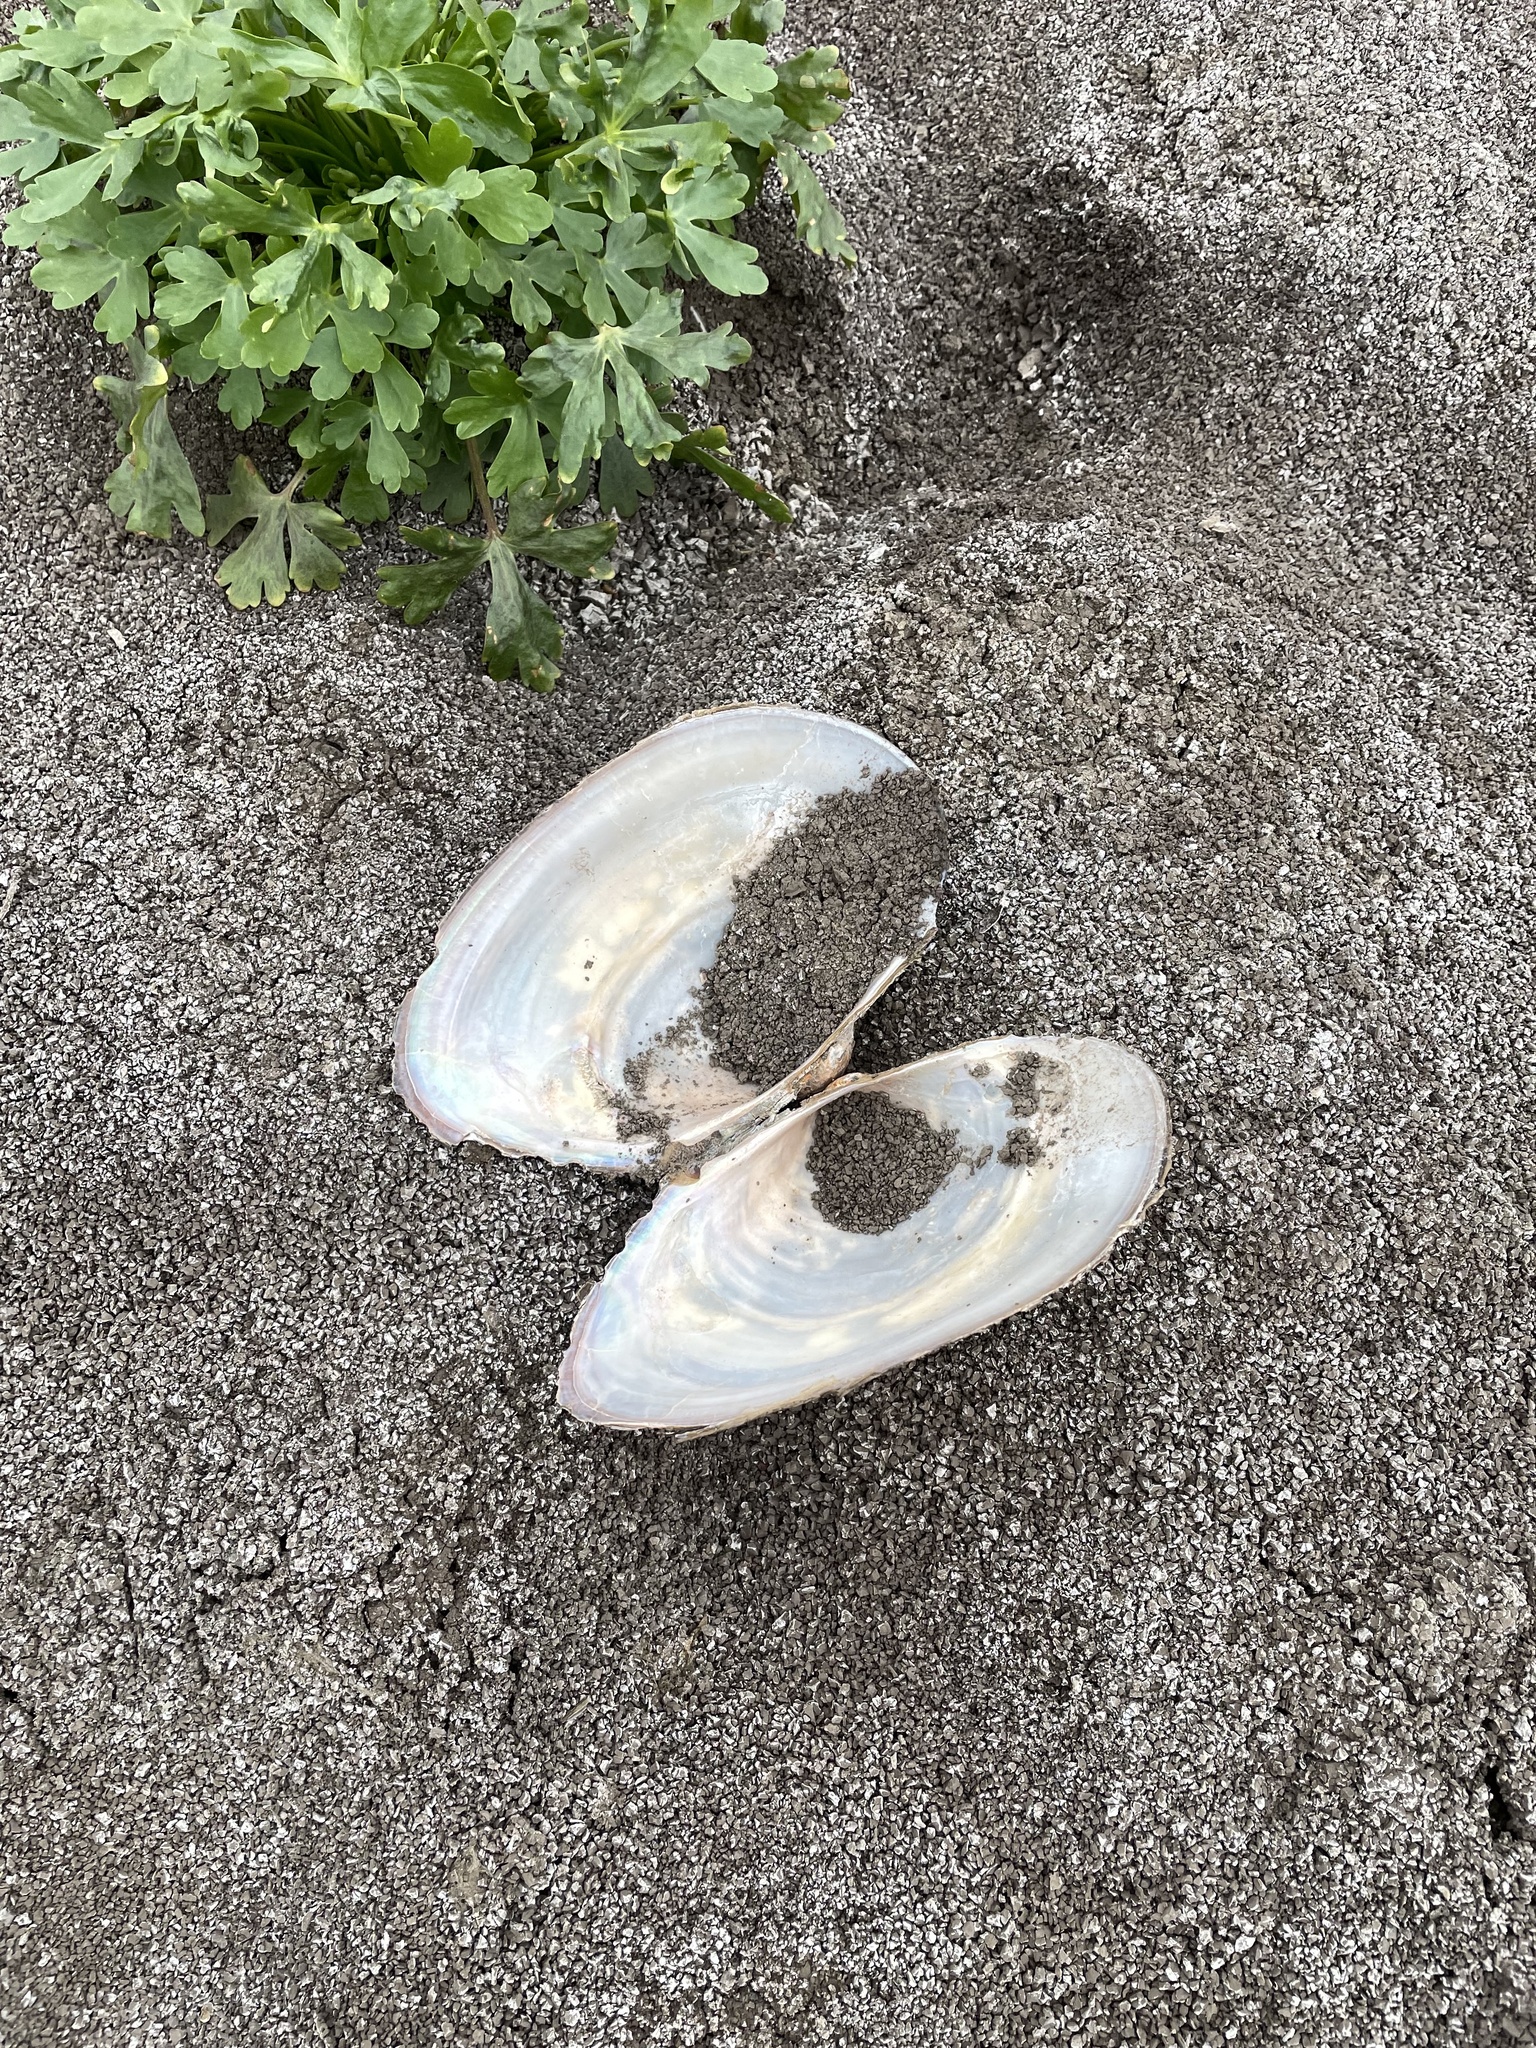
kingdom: Animalia
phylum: Mollusca
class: Bivalvia
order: Unionida
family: Unionidae
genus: Pyganodon
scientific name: Pyganodon grandis
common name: Giant floater
